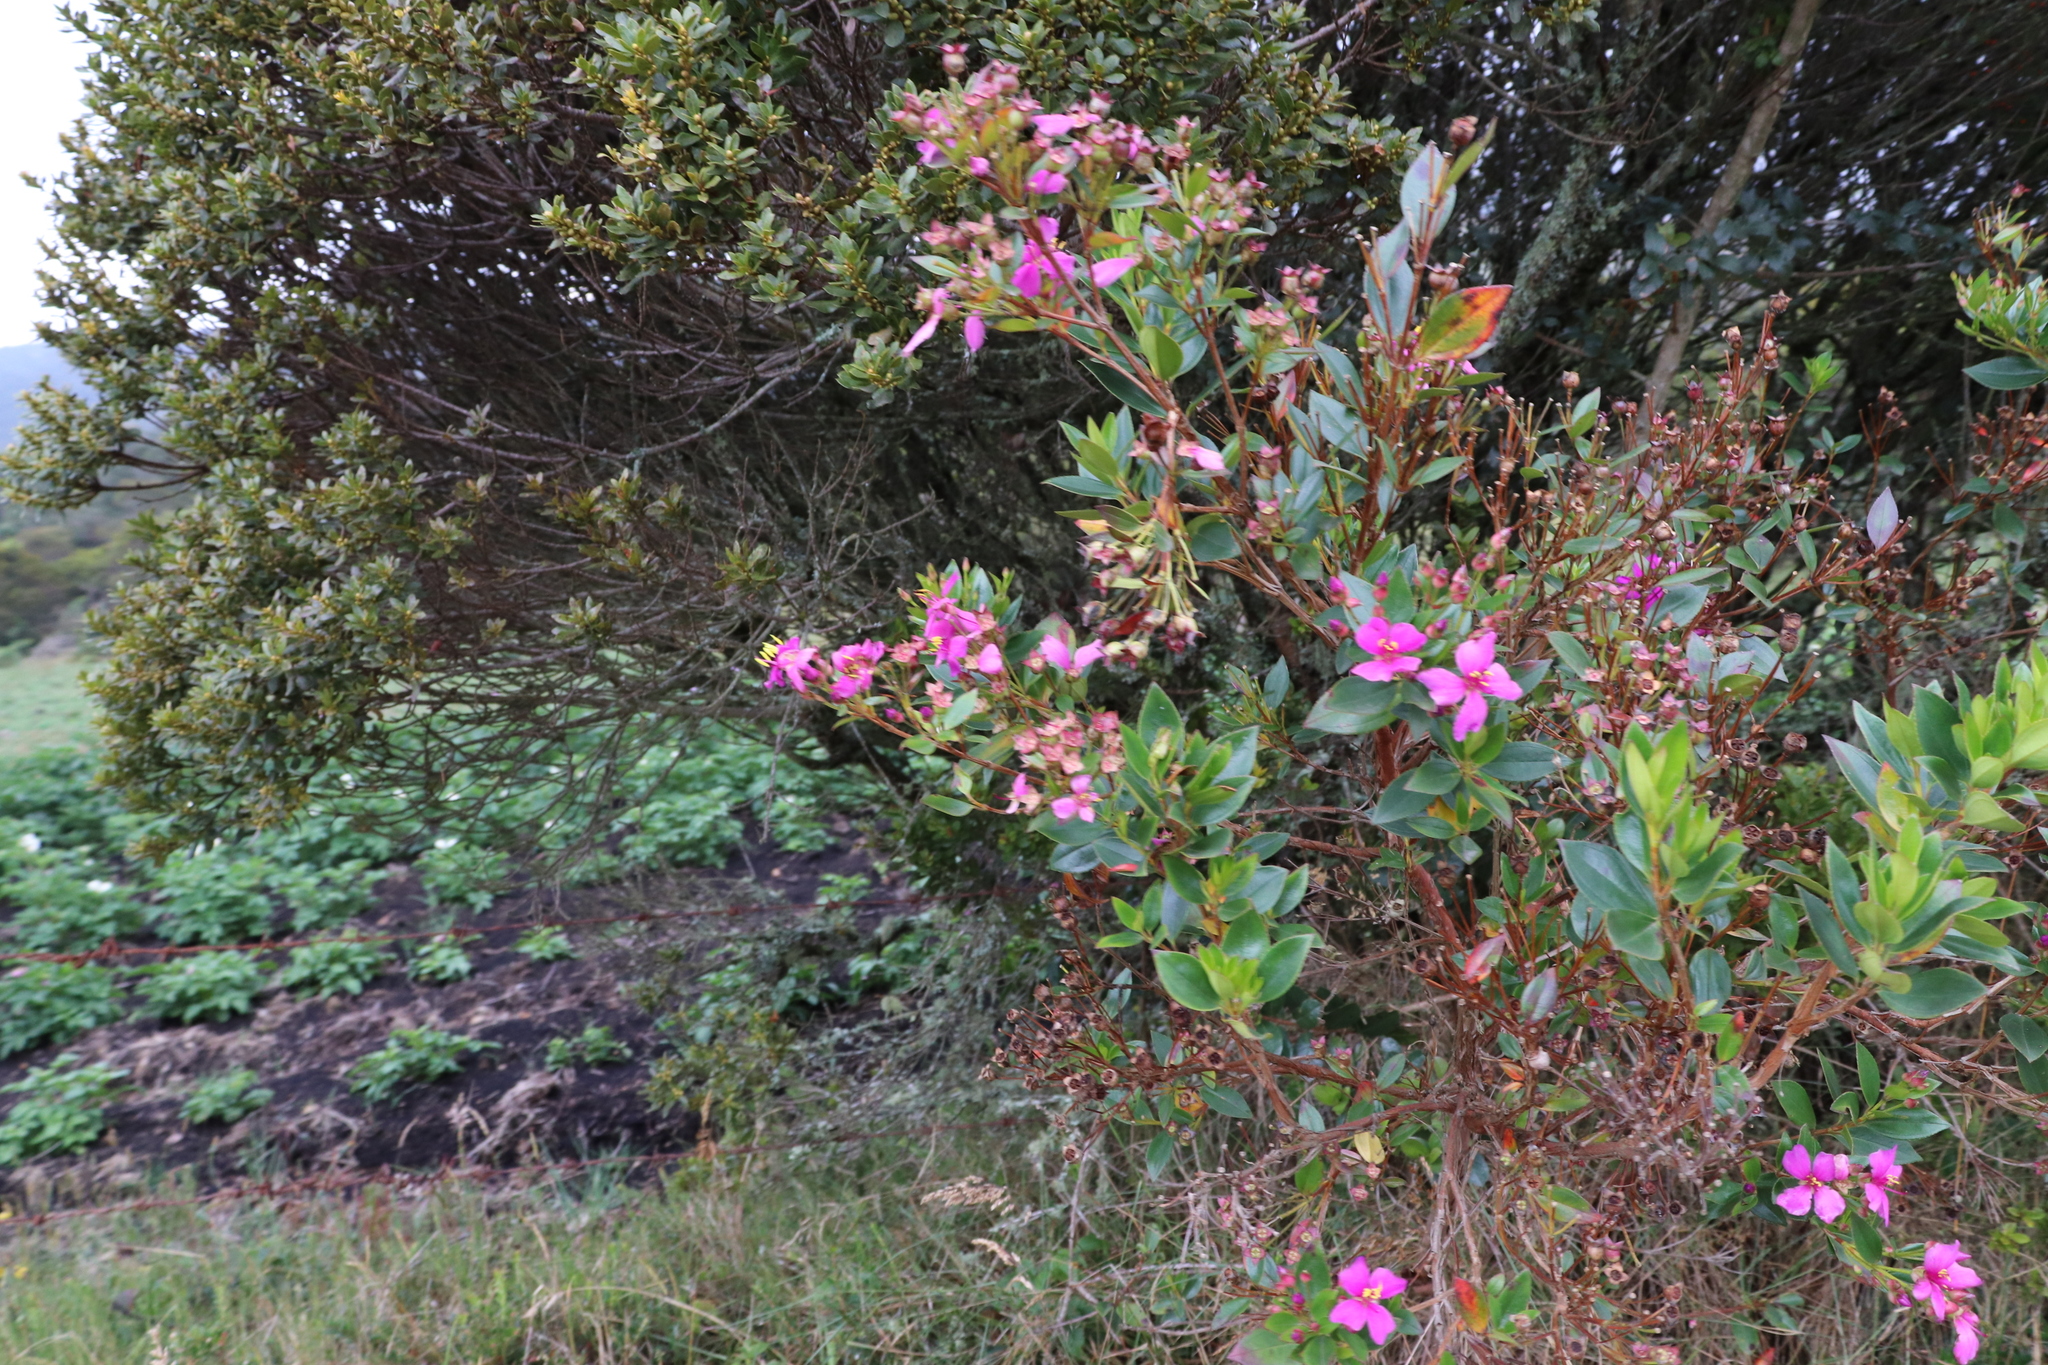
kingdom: Plantae
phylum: Tracheophyta
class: Magnoliopsida
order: Myrtales
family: Melastomataceae
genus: Bucquetia
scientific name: Bucquetia glutinosa
